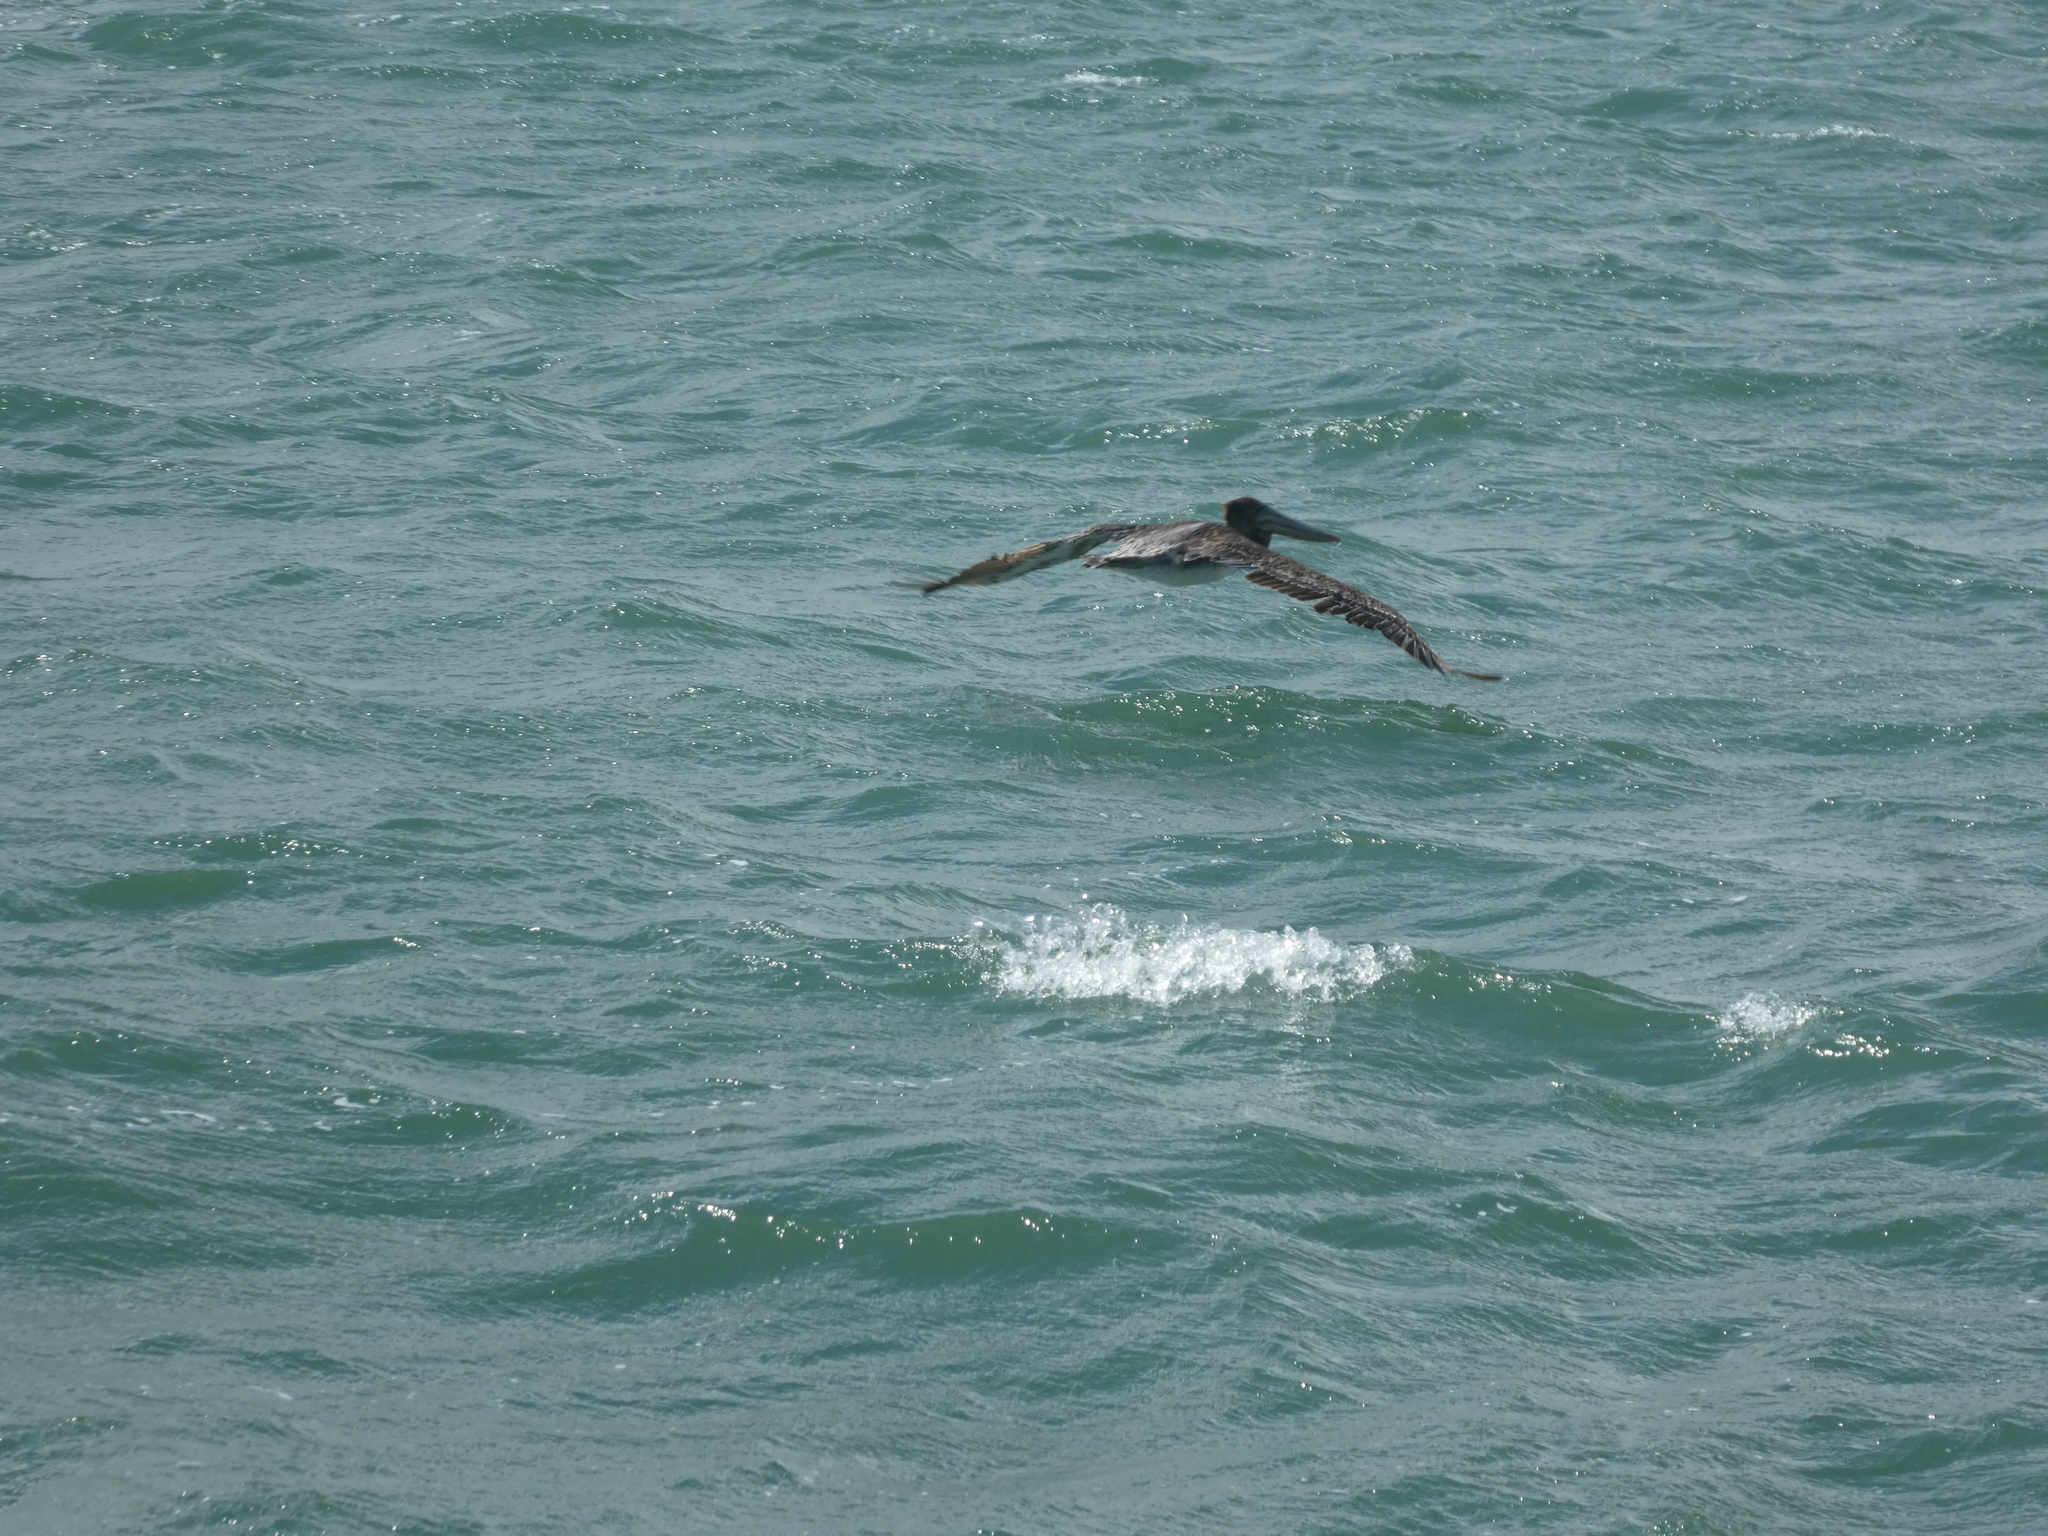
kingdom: Animalia
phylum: Chordata
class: Aves
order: Pelecaniformes
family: Pelecanidae
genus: Pelecanus
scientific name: Pelecanus occidentalis
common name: Brown pelican
